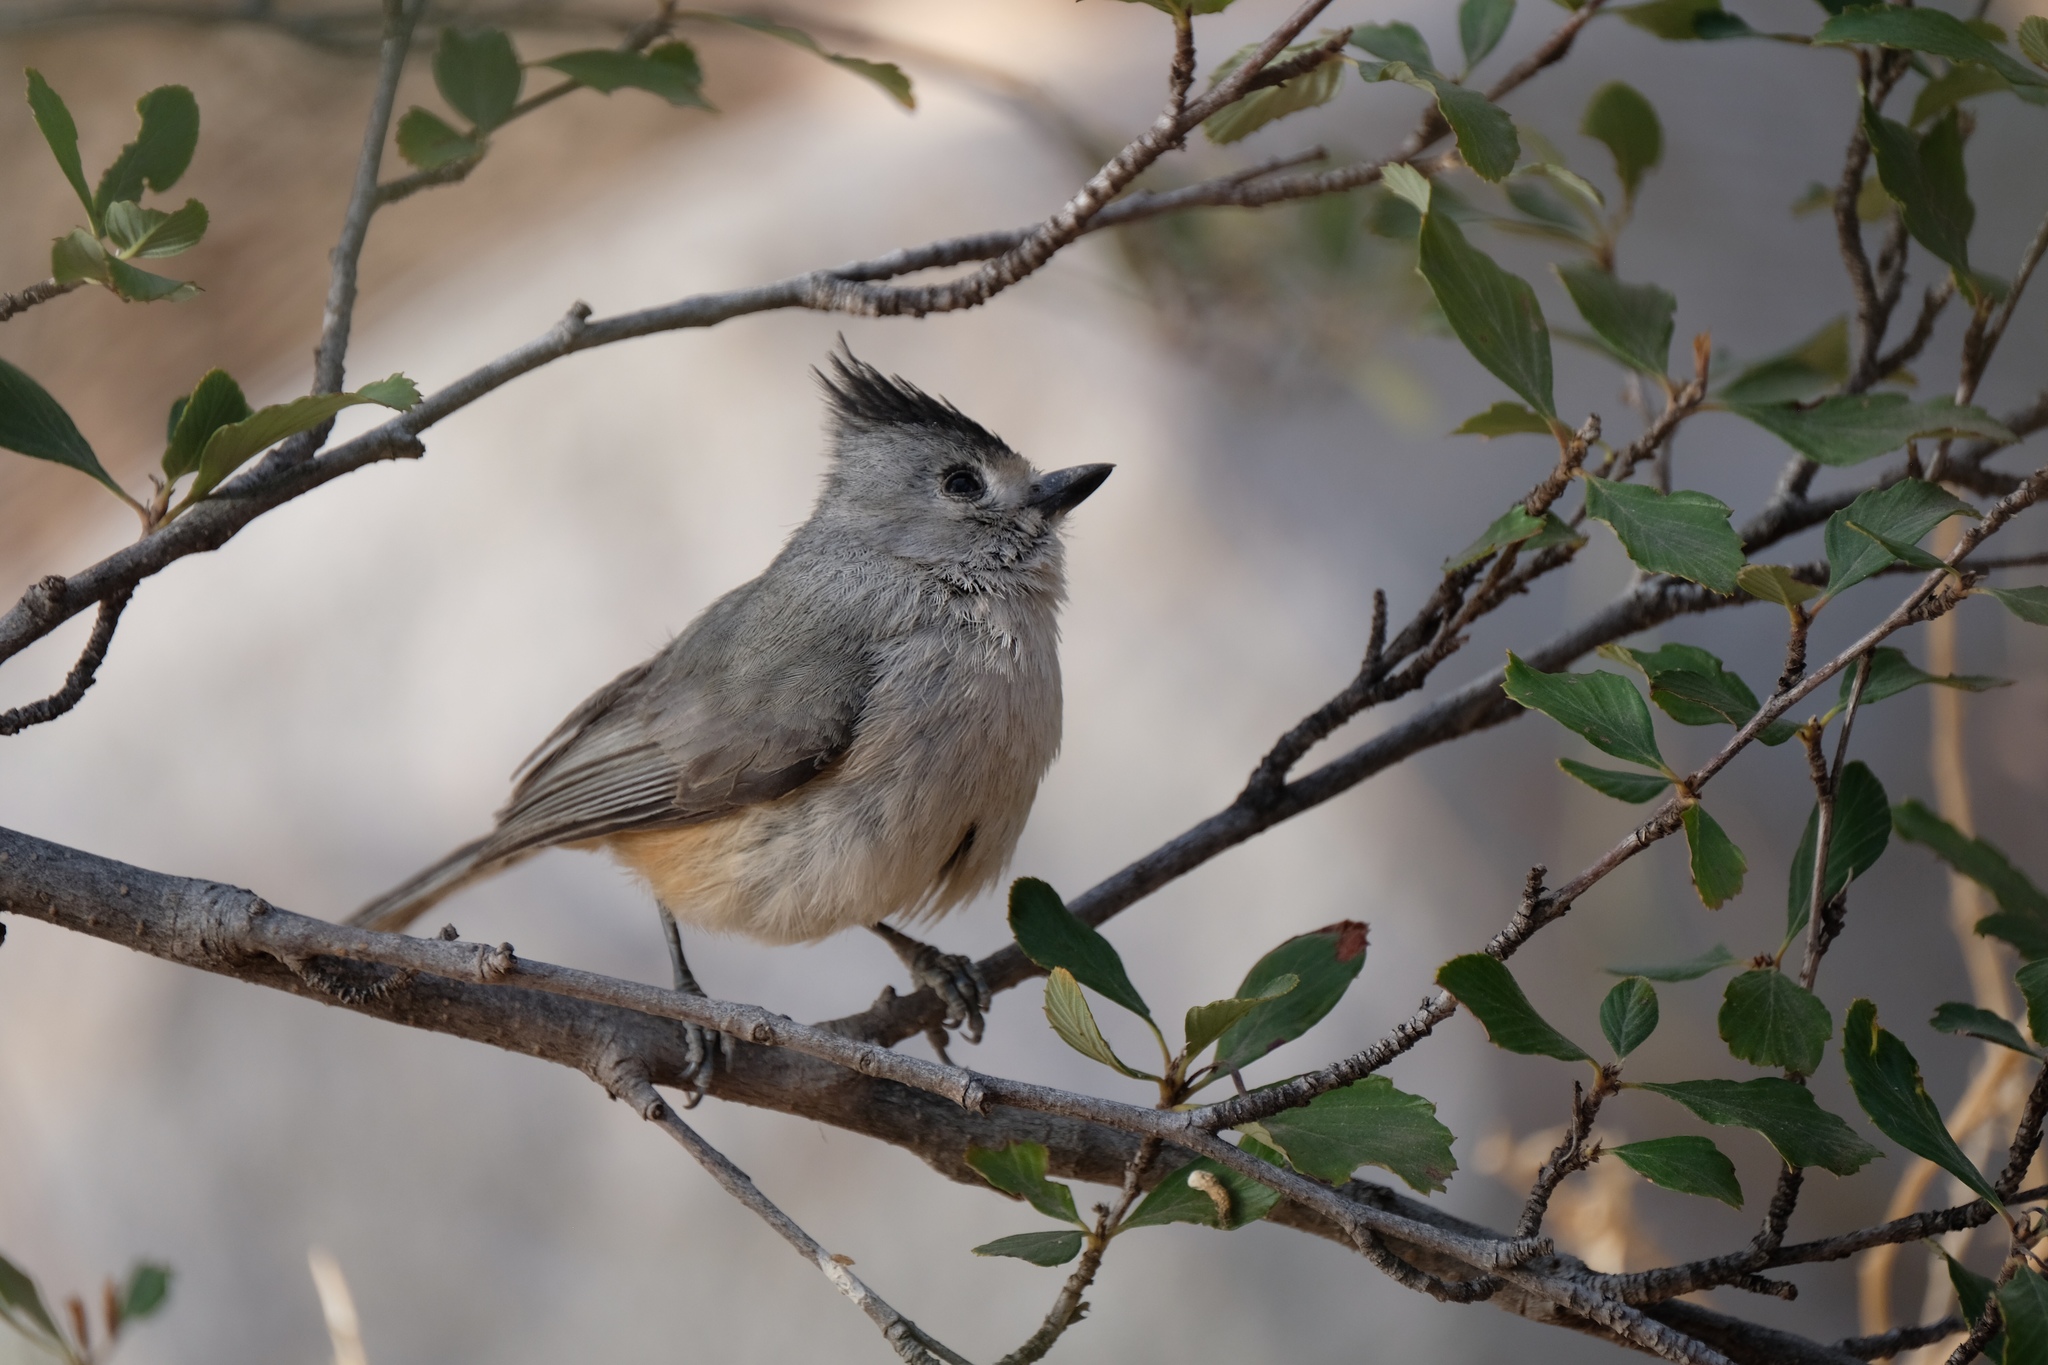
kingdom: Animalia
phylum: Chordata
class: Aves
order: Passeriformes
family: Paridae
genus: Baeolophus
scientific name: Baeolophus atricristatus
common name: Black-crested titmouse
